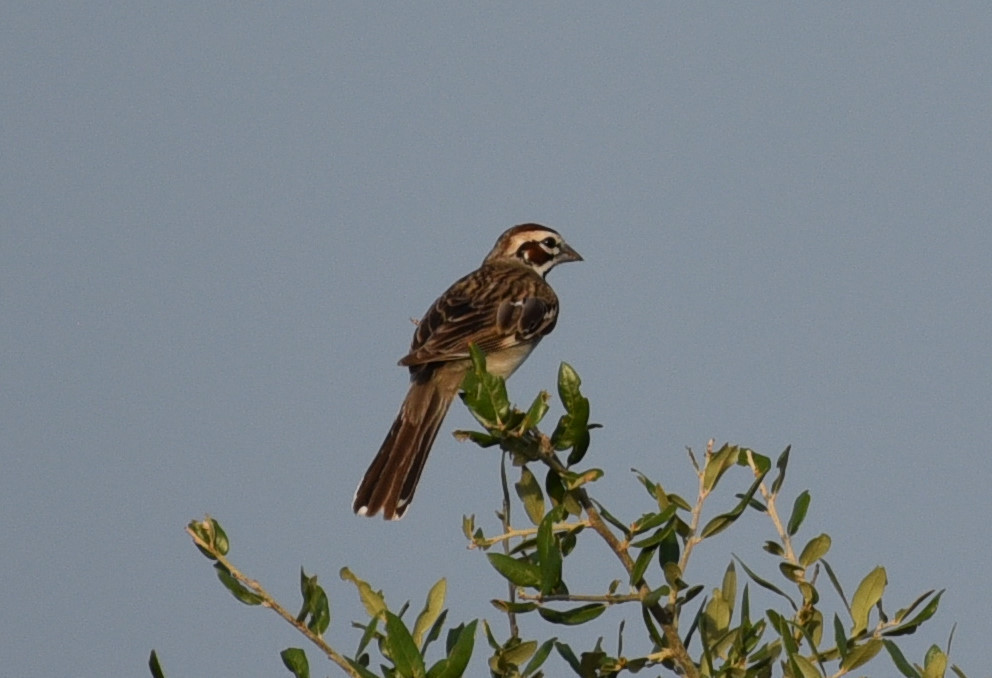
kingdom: Animalia
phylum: Chordata
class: Aves
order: Passeriformes
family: Passerellidae
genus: Chondestes
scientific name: Chondestes grammacus
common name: Lark sparrow
